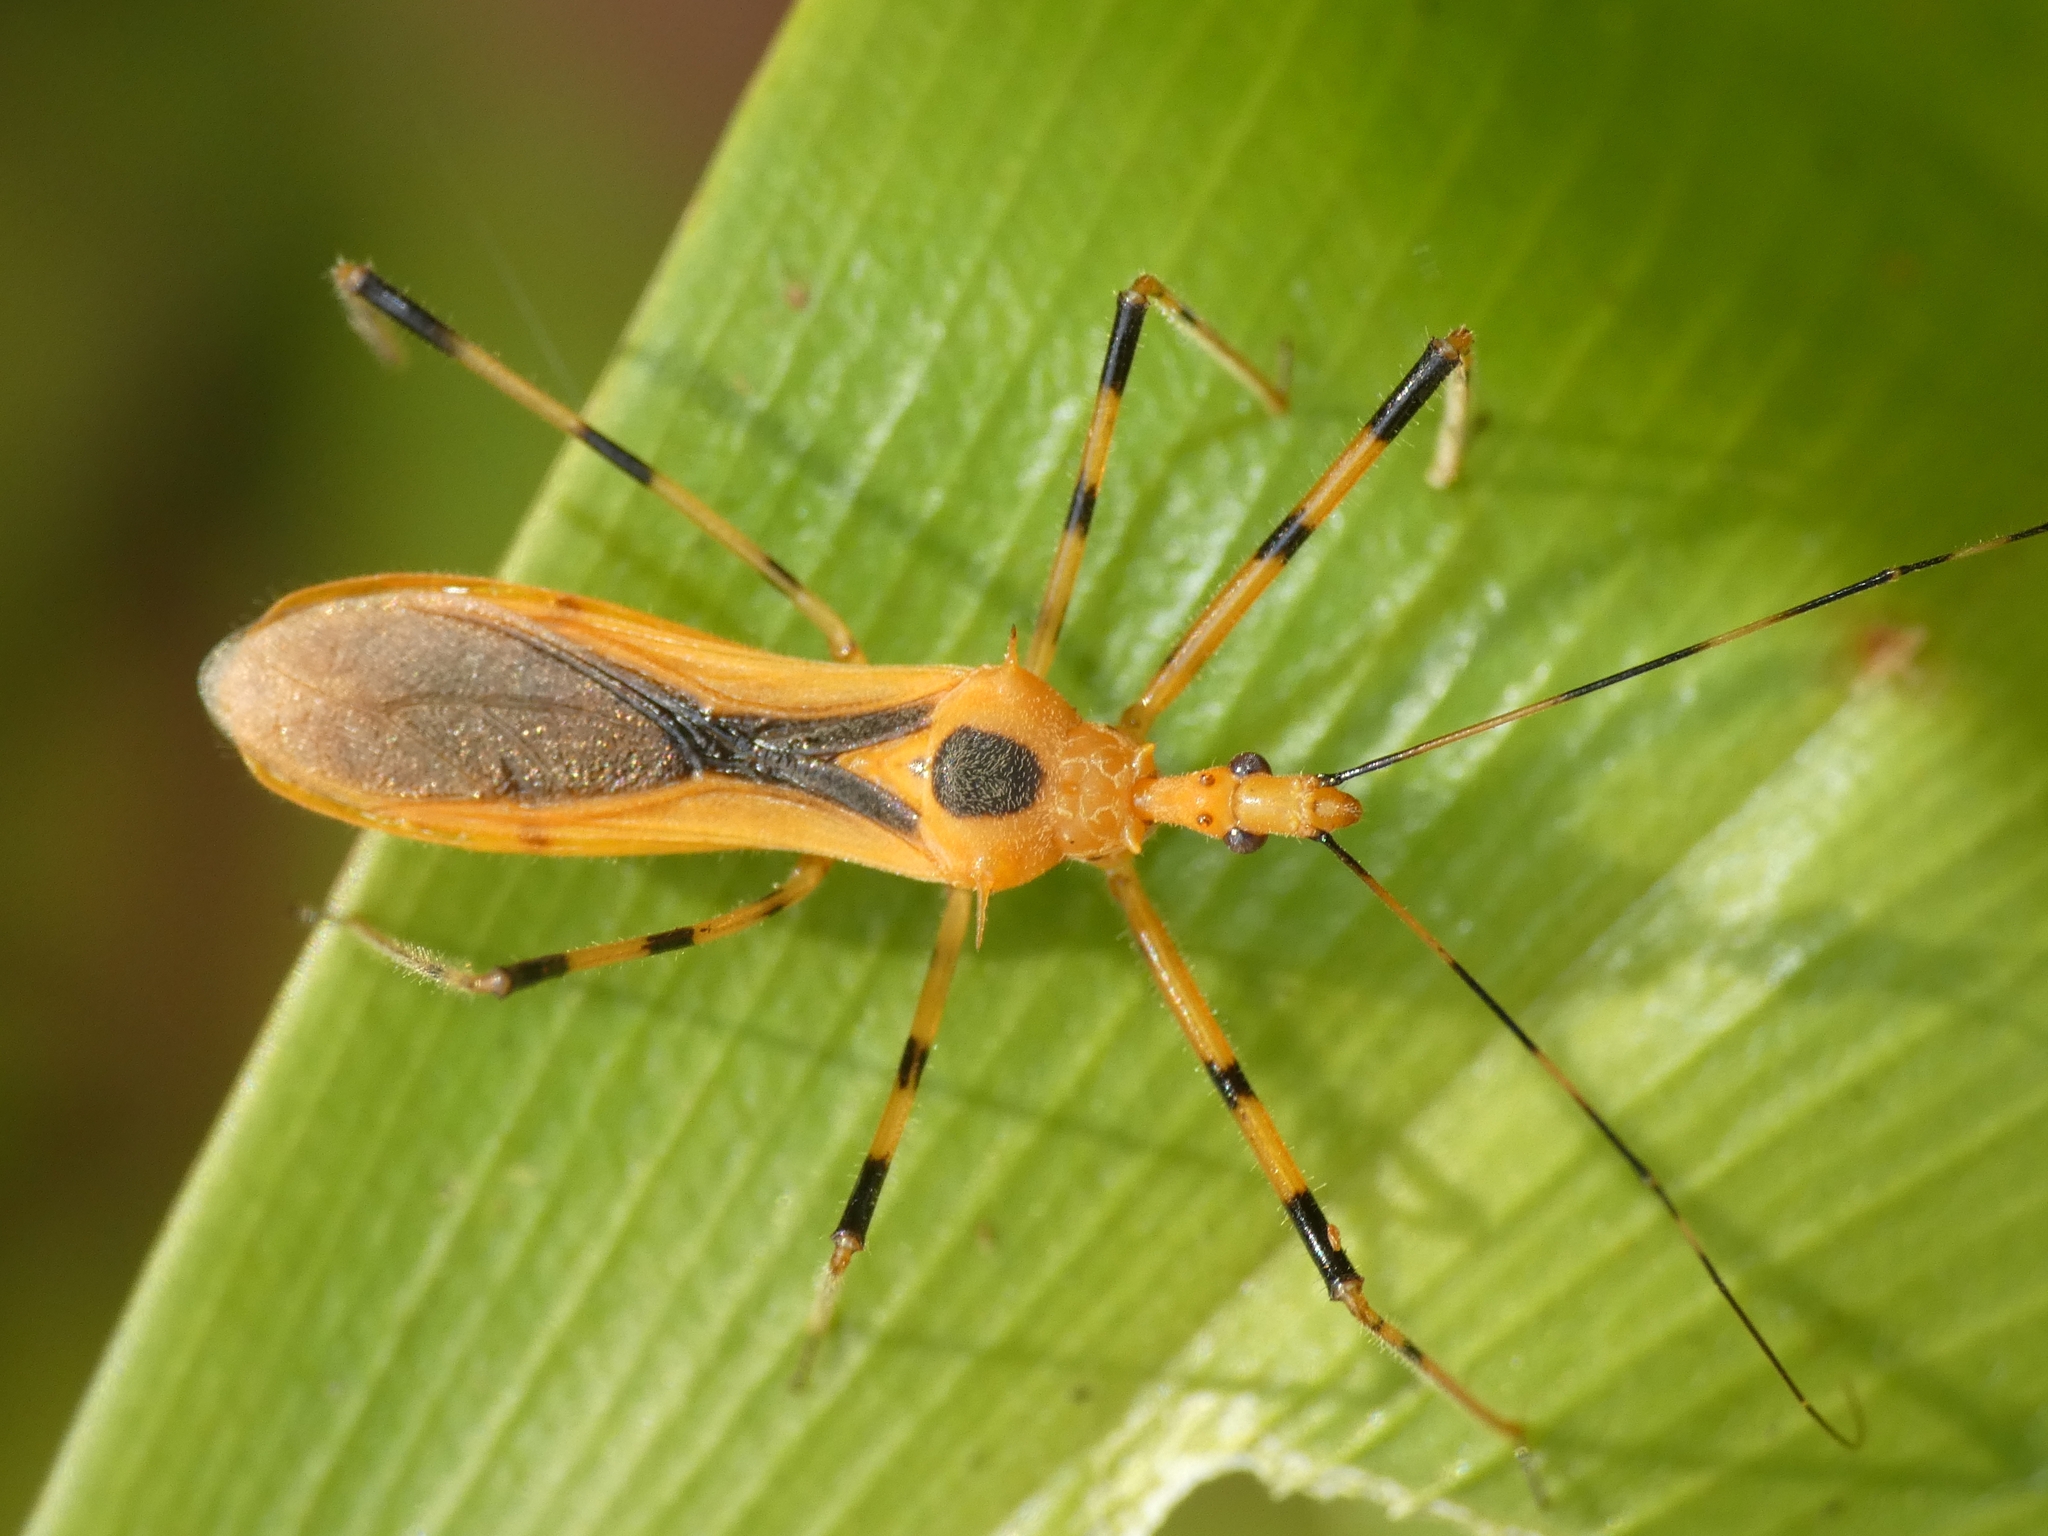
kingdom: Animalia
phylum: Arthropoda
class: Insecta
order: Hemiptera
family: Reduviidae
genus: Euagoras
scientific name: Euagoras dorycus
